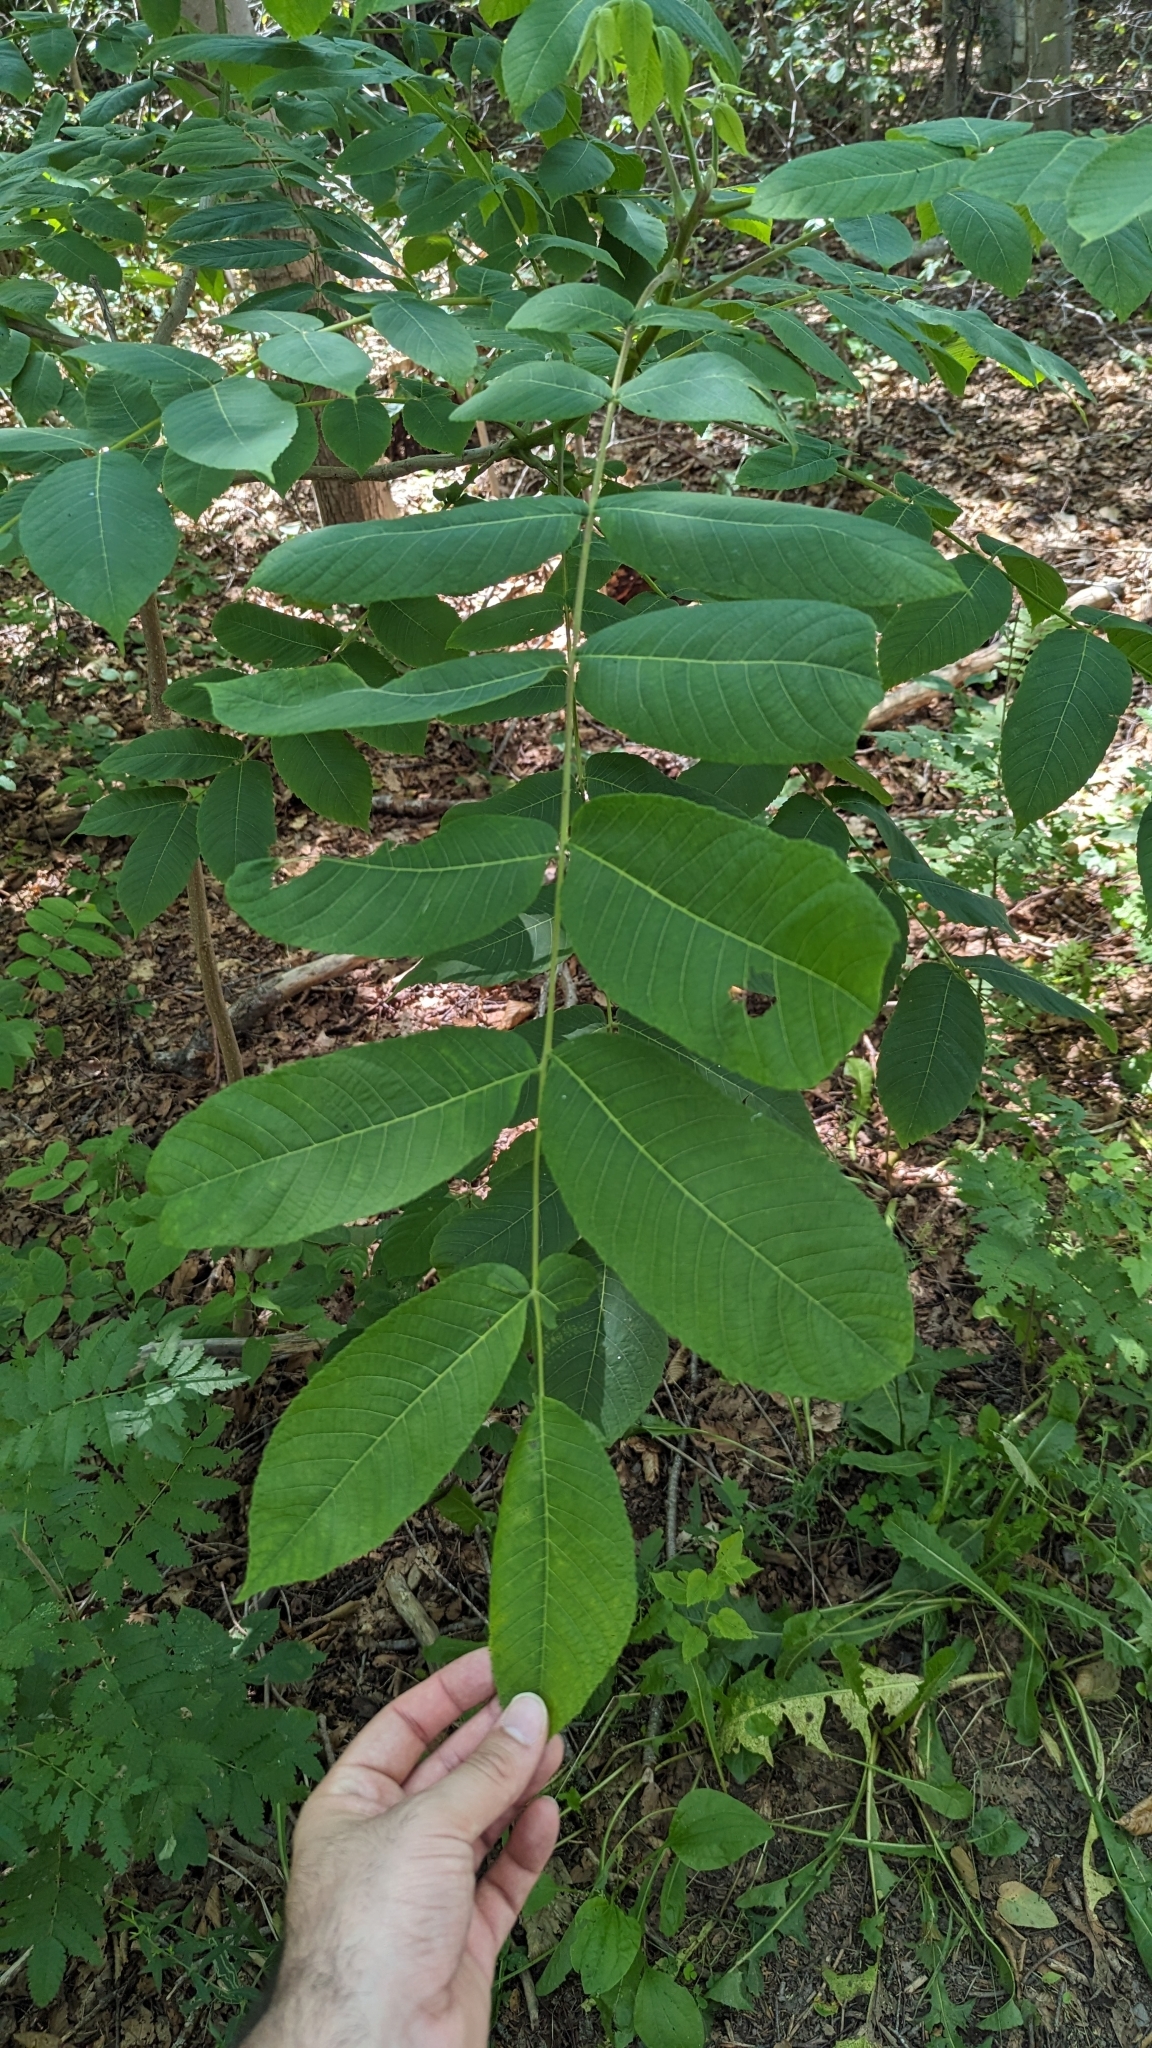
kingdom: Plantae
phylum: Tracheophyta
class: Magnoliopsida
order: Fagales
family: Juglandaceae
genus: Juglans
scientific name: Juglans cinerea
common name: Butternut
